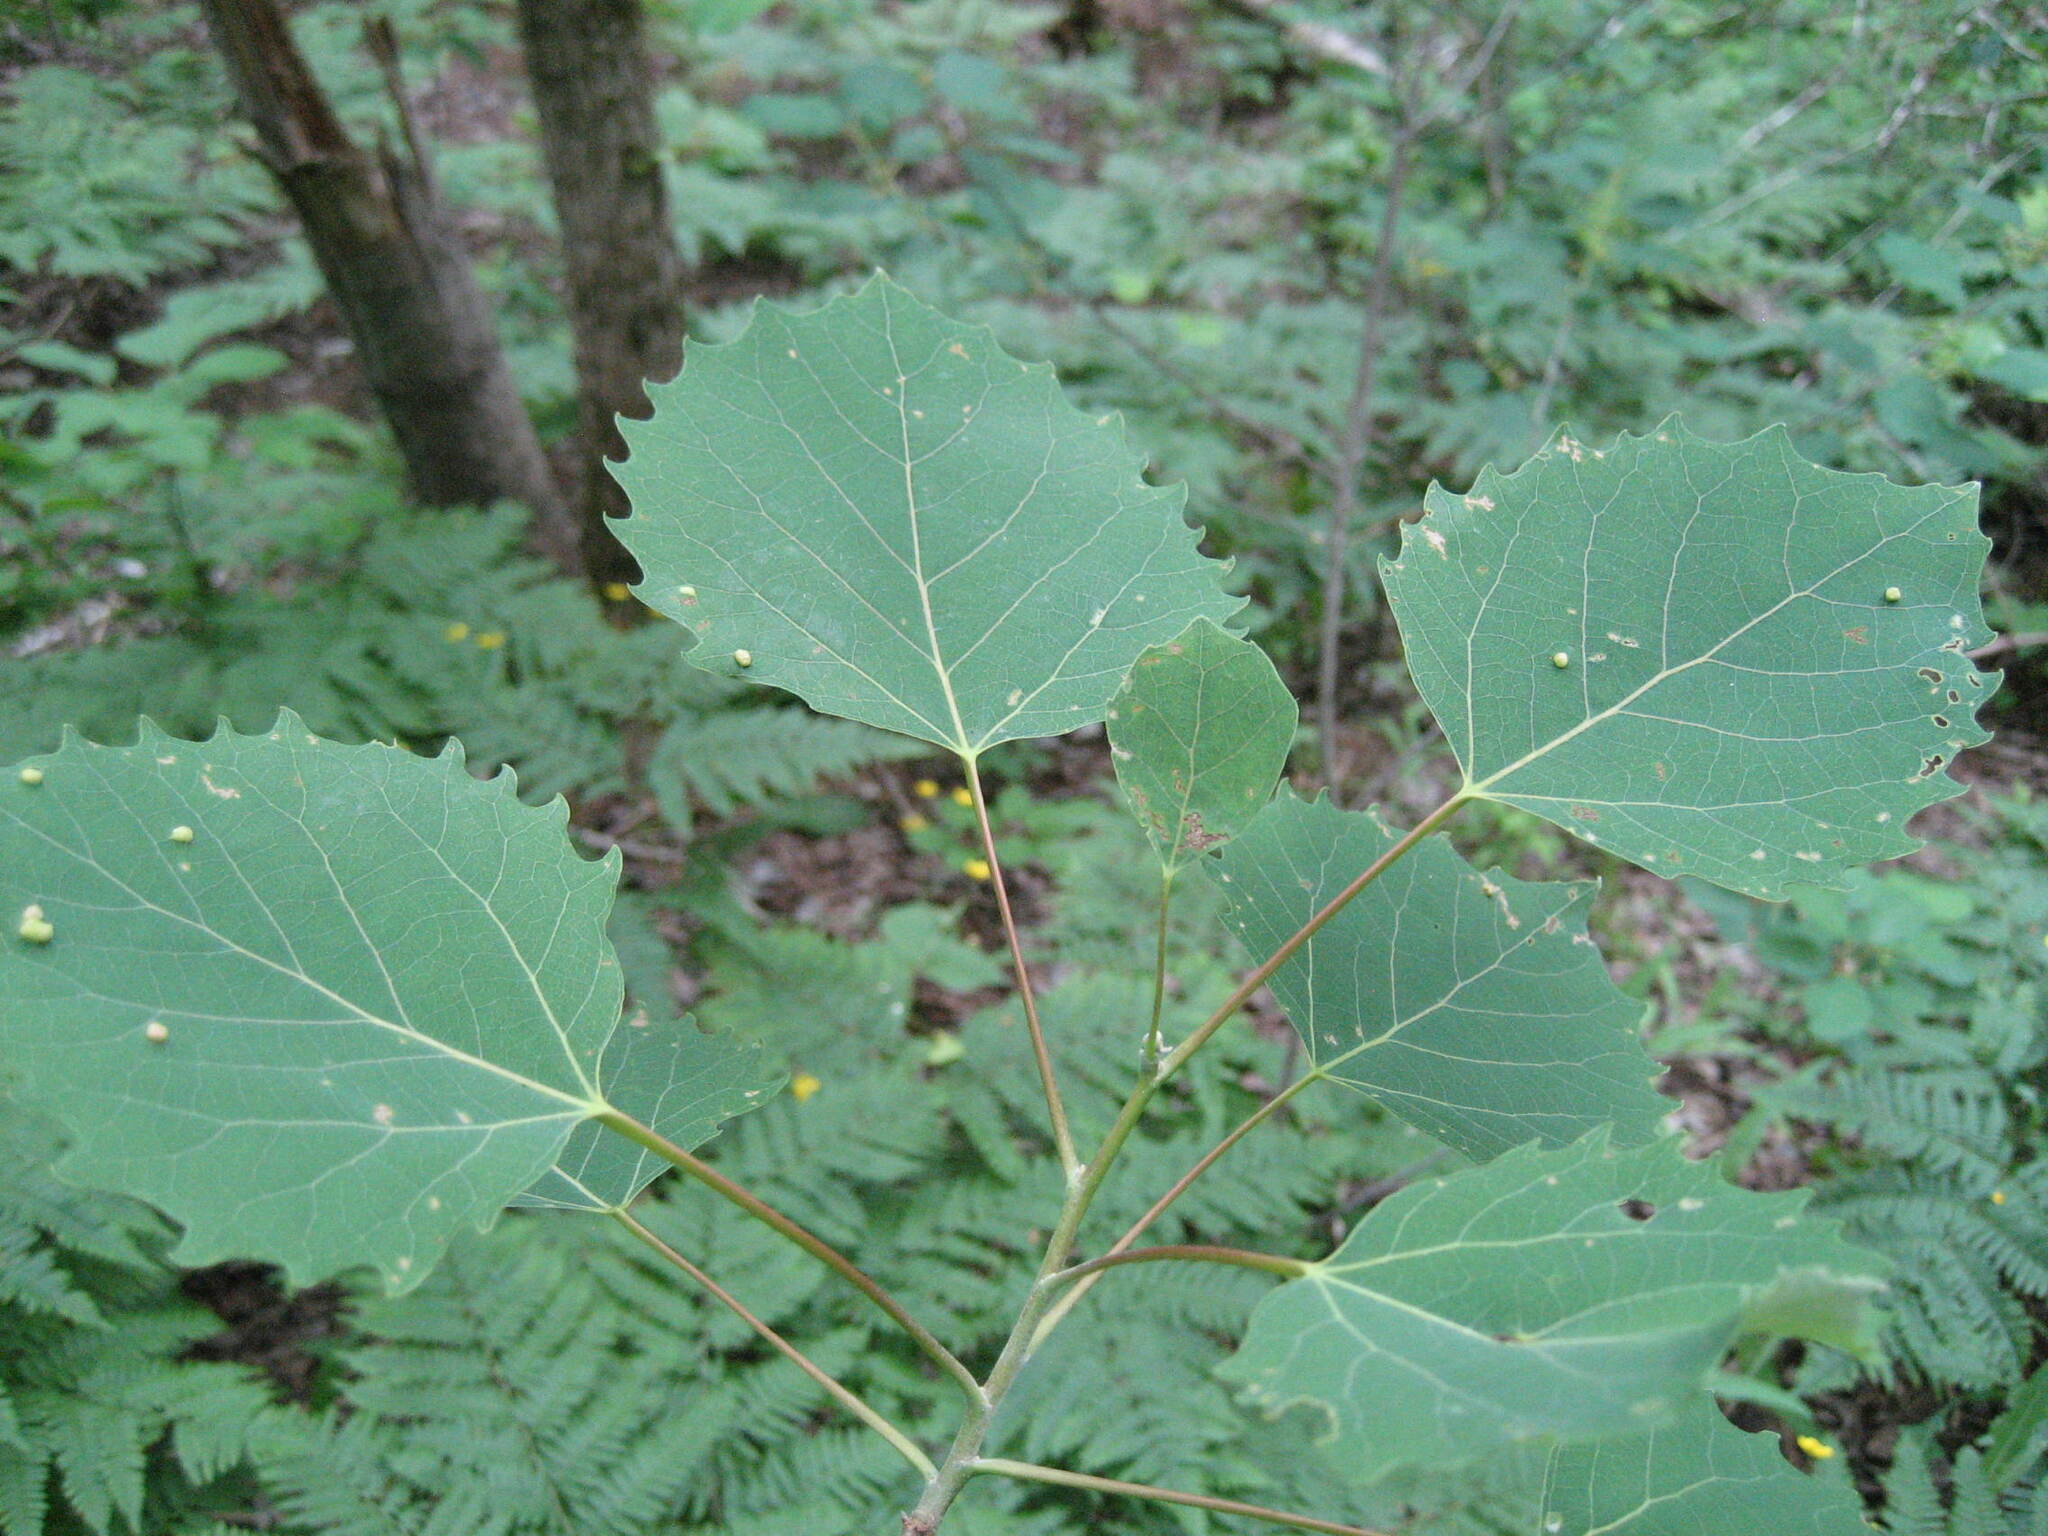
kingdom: Plantae
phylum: Tracheophyta
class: Magnoliopsida
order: Malpighiales
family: Salicaceae
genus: Populus
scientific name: Populus grandidentata
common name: Bigtooth aspen
